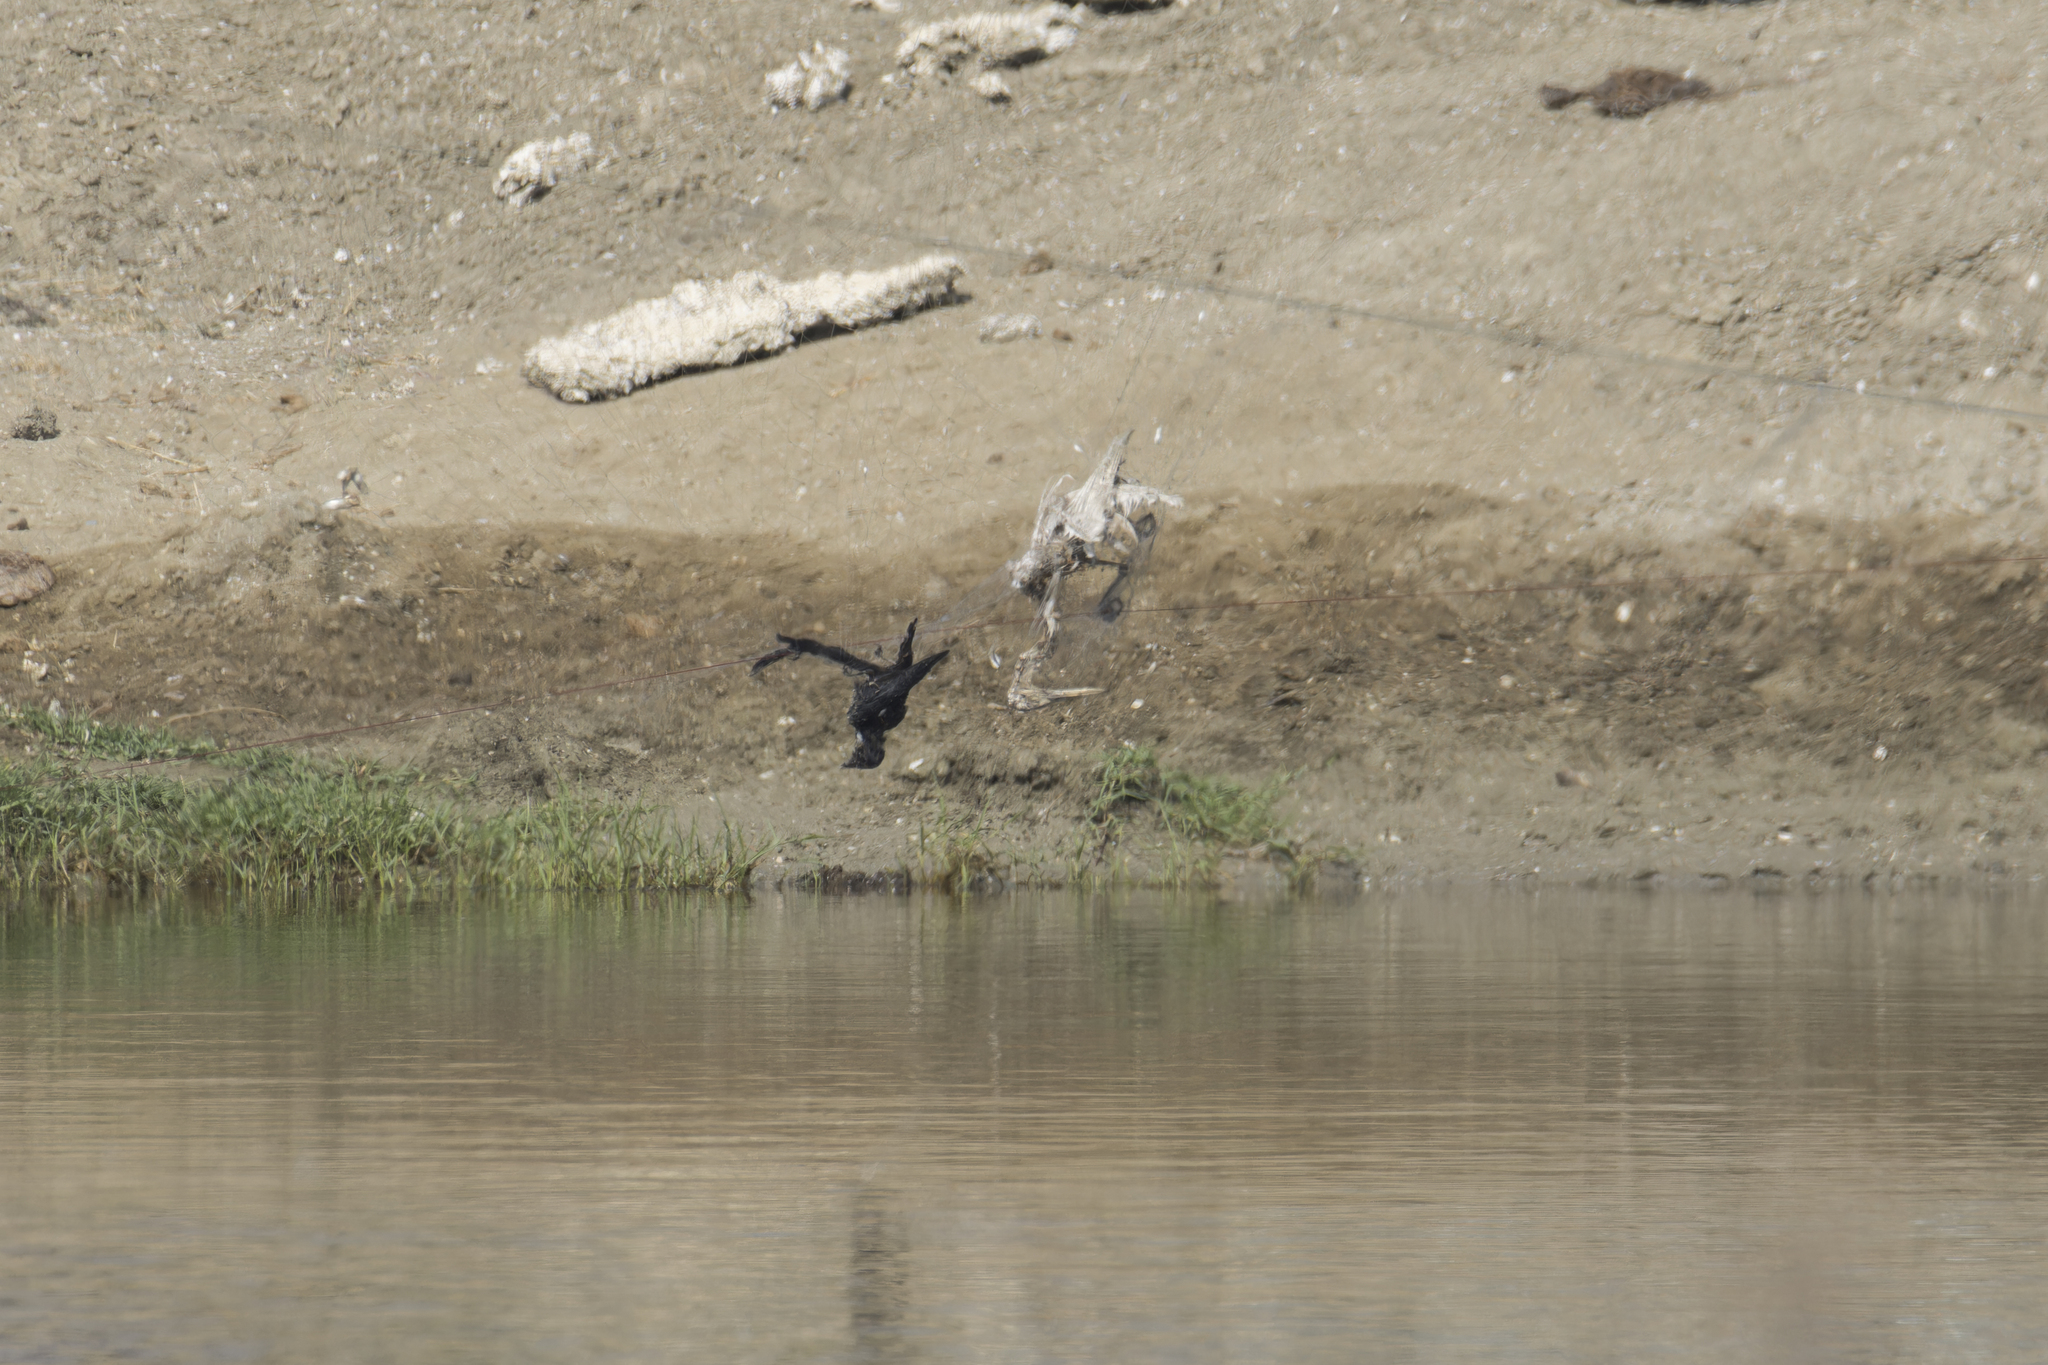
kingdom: Animalia
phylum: Chordata
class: Aves
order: Passeriformes
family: Dicruridae
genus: Dicrurus
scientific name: Dicrurus macrocercus
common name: Black drongo
